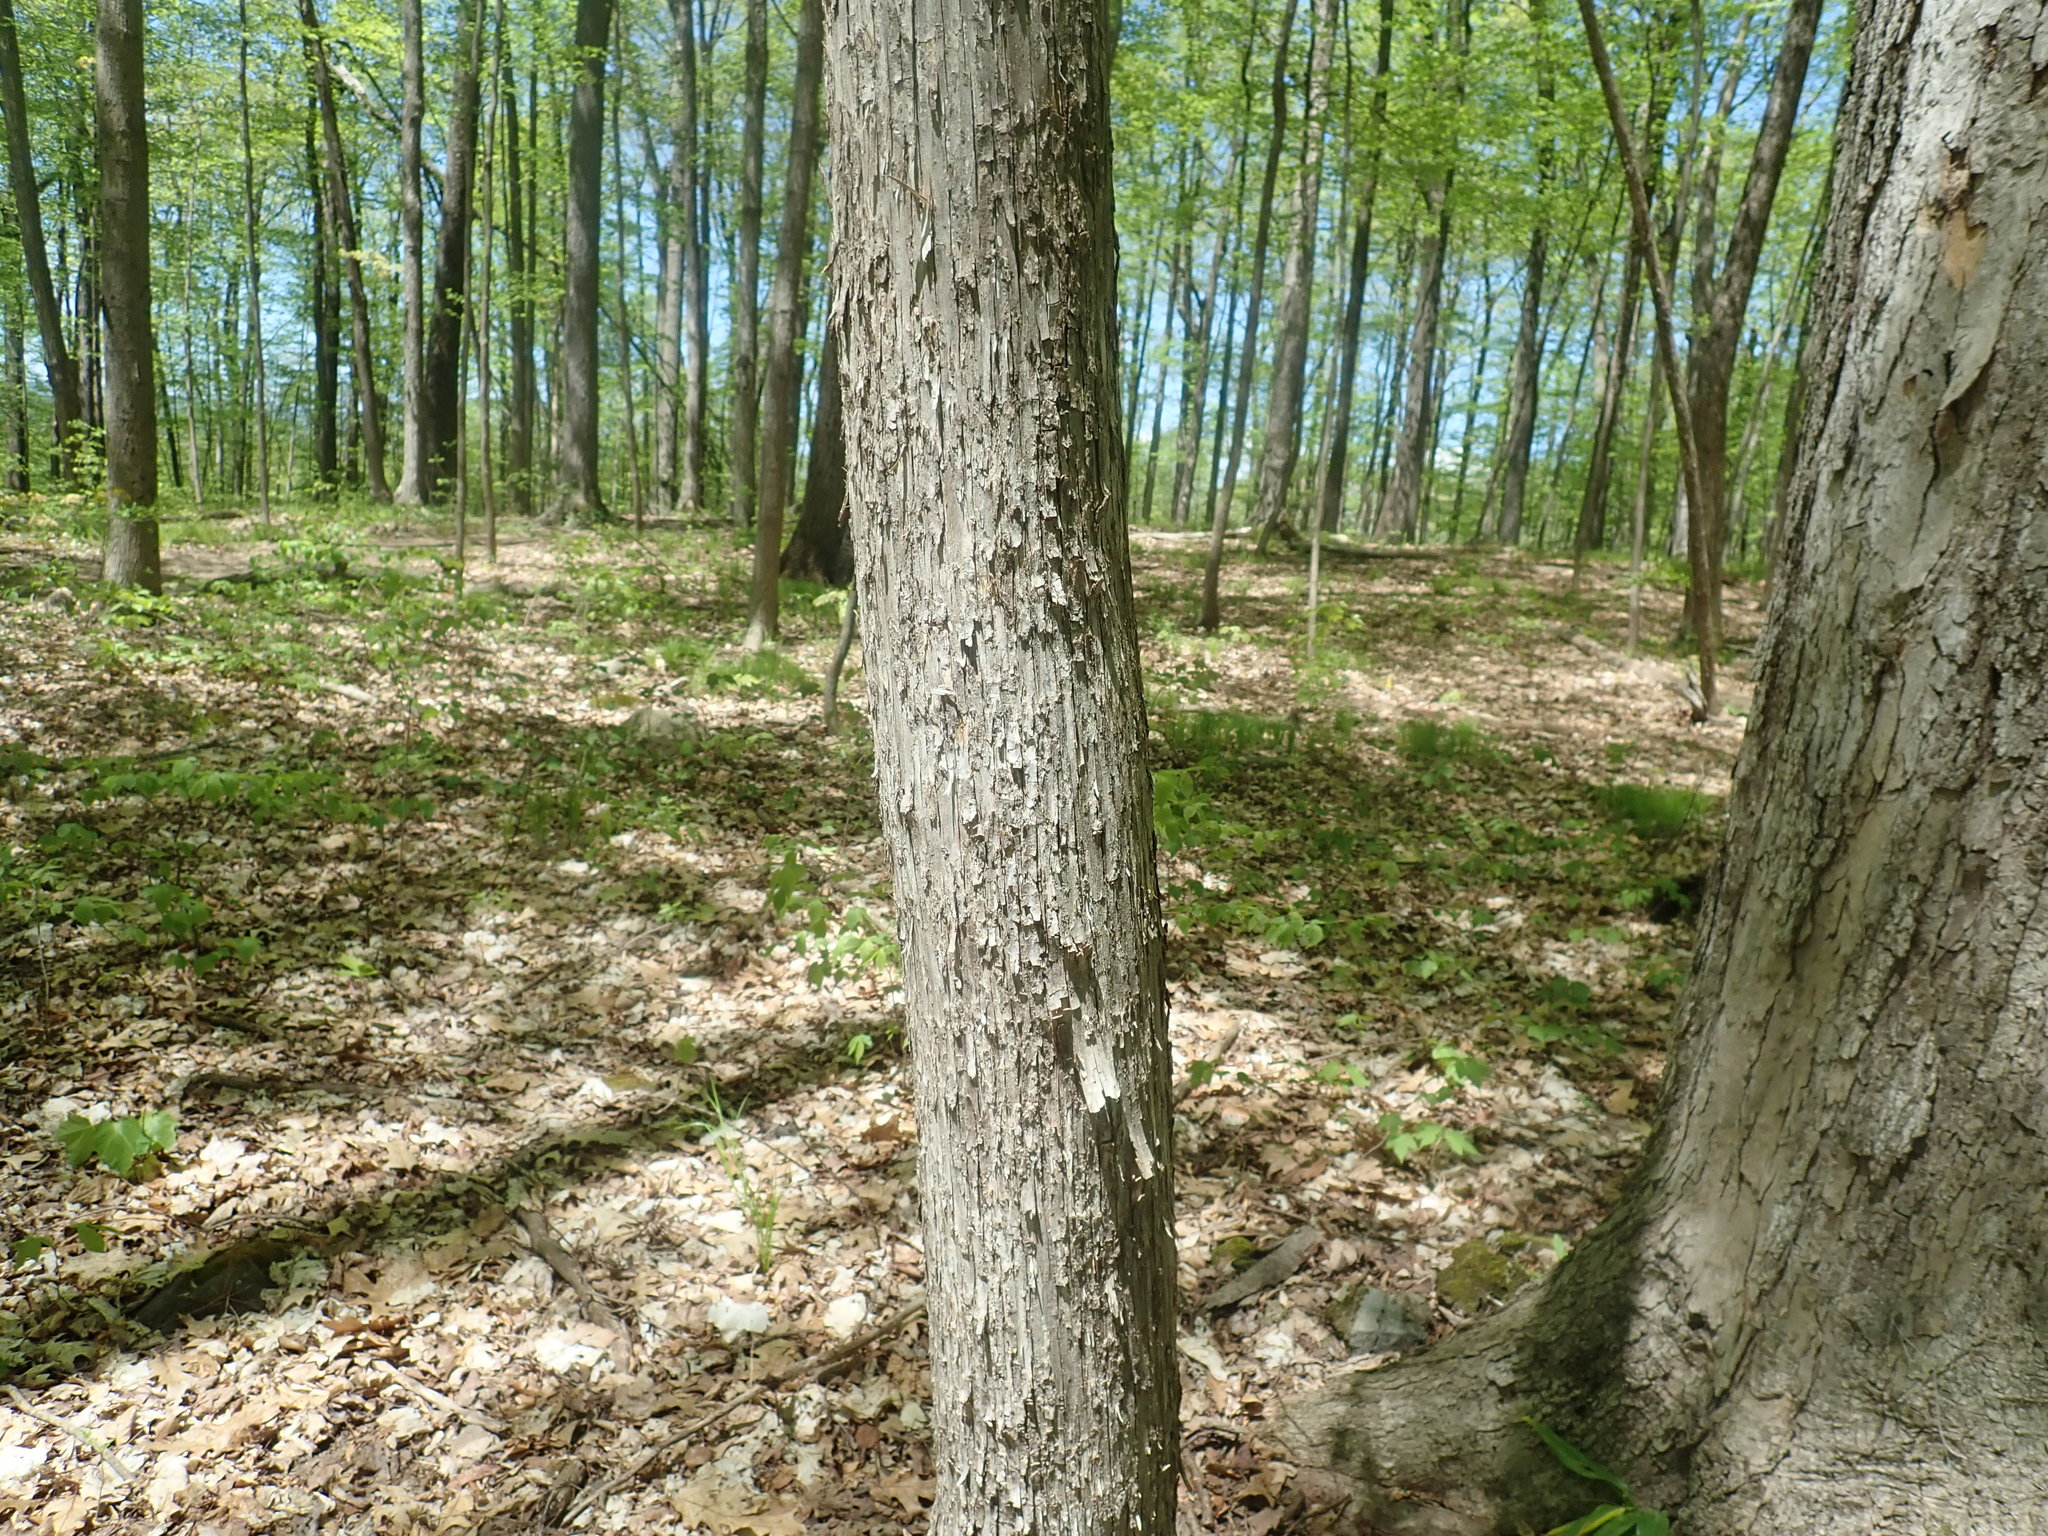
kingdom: Plantae
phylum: Tracheophyta
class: Magnoliopsida
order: Fagales
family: Betulaceae
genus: Ostrya
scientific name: Ostrya virginiana
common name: Ironwood
